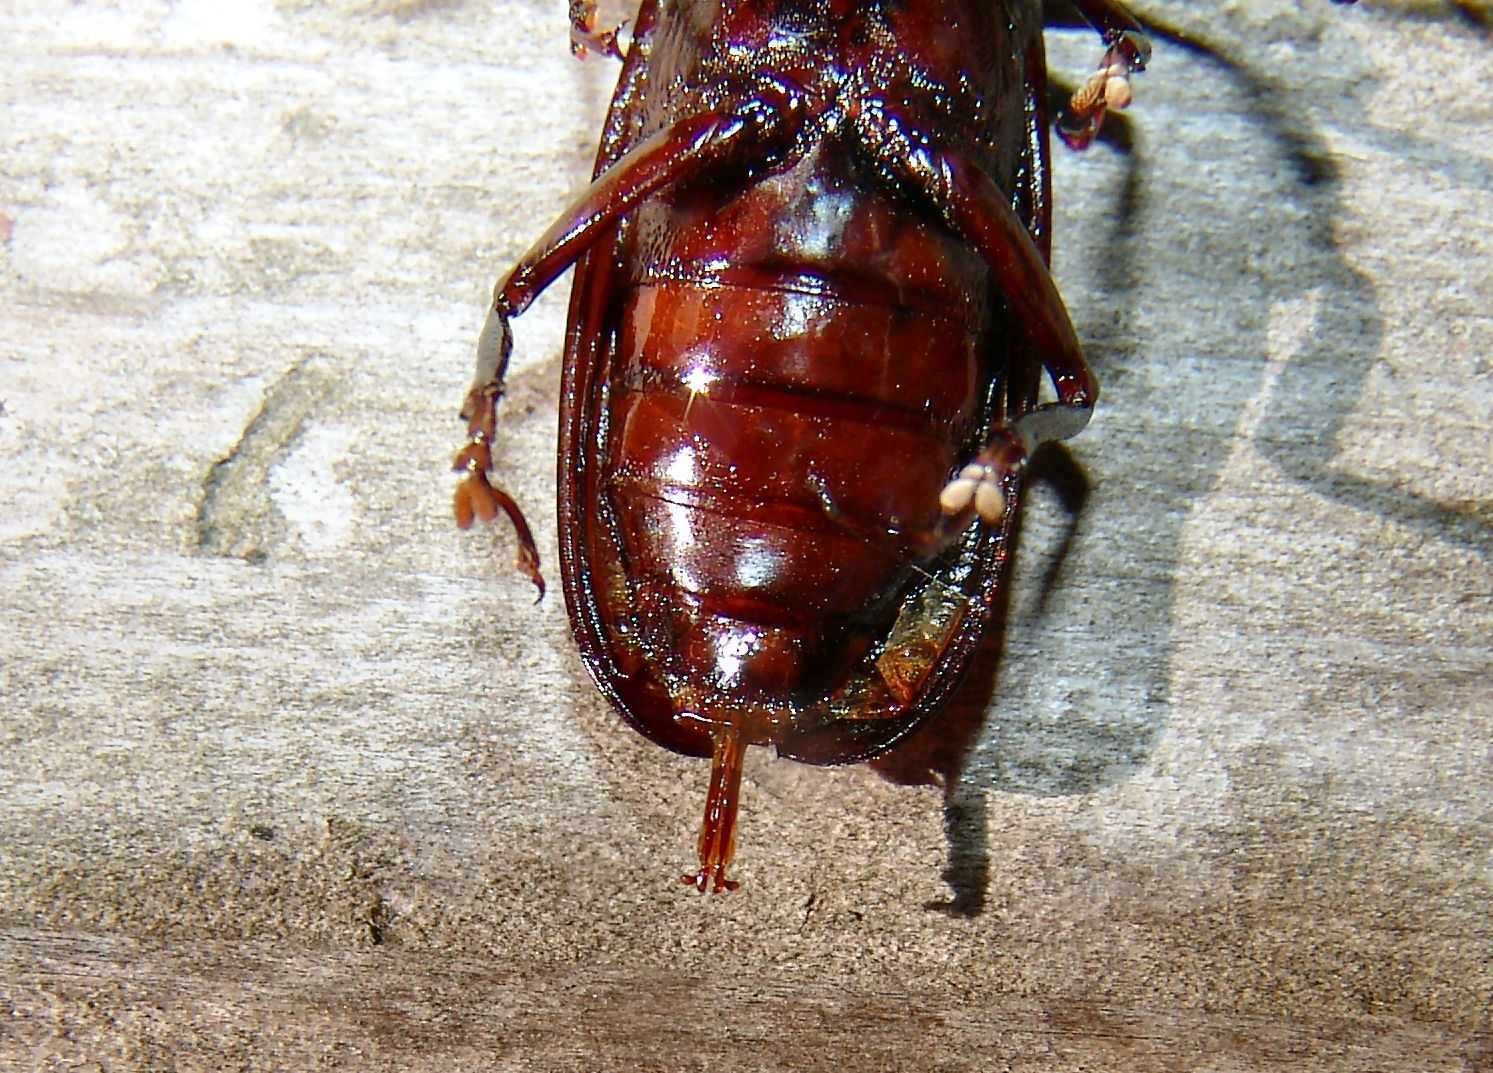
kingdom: Animalia
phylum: Arthropoda
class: Insecta
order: Coleoptera
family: Cerambycidae
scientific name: Cerambycidae
